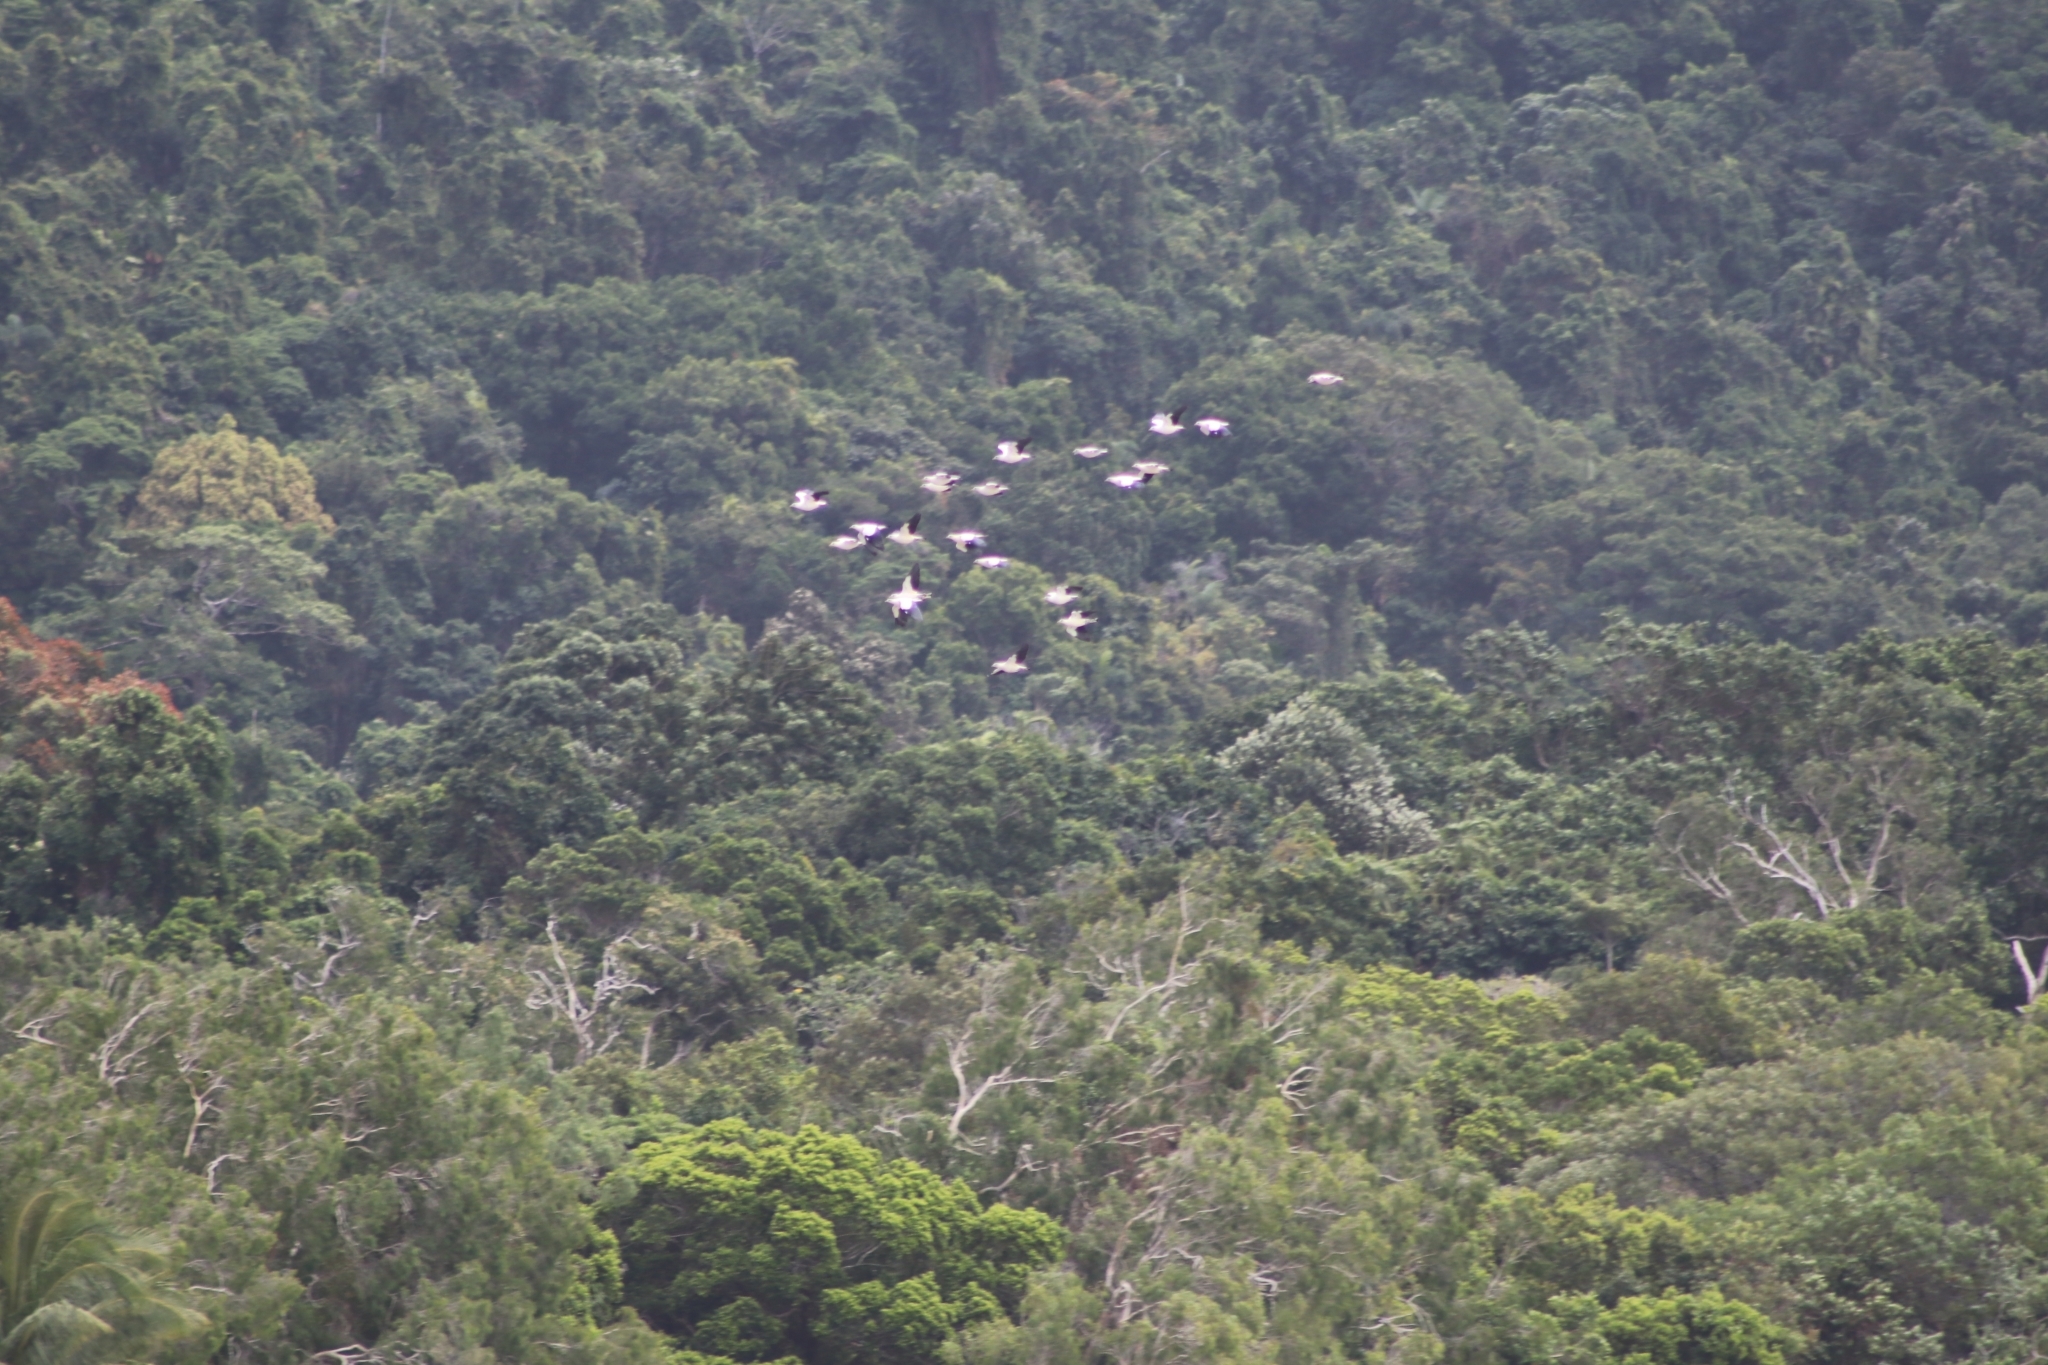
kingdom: Animalia
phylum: Chordata
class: Aves
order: Columbiformes
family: Columbidae
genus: Ducula
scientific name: Ducula spilorrhoa
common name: Torresian imperial pigeon
